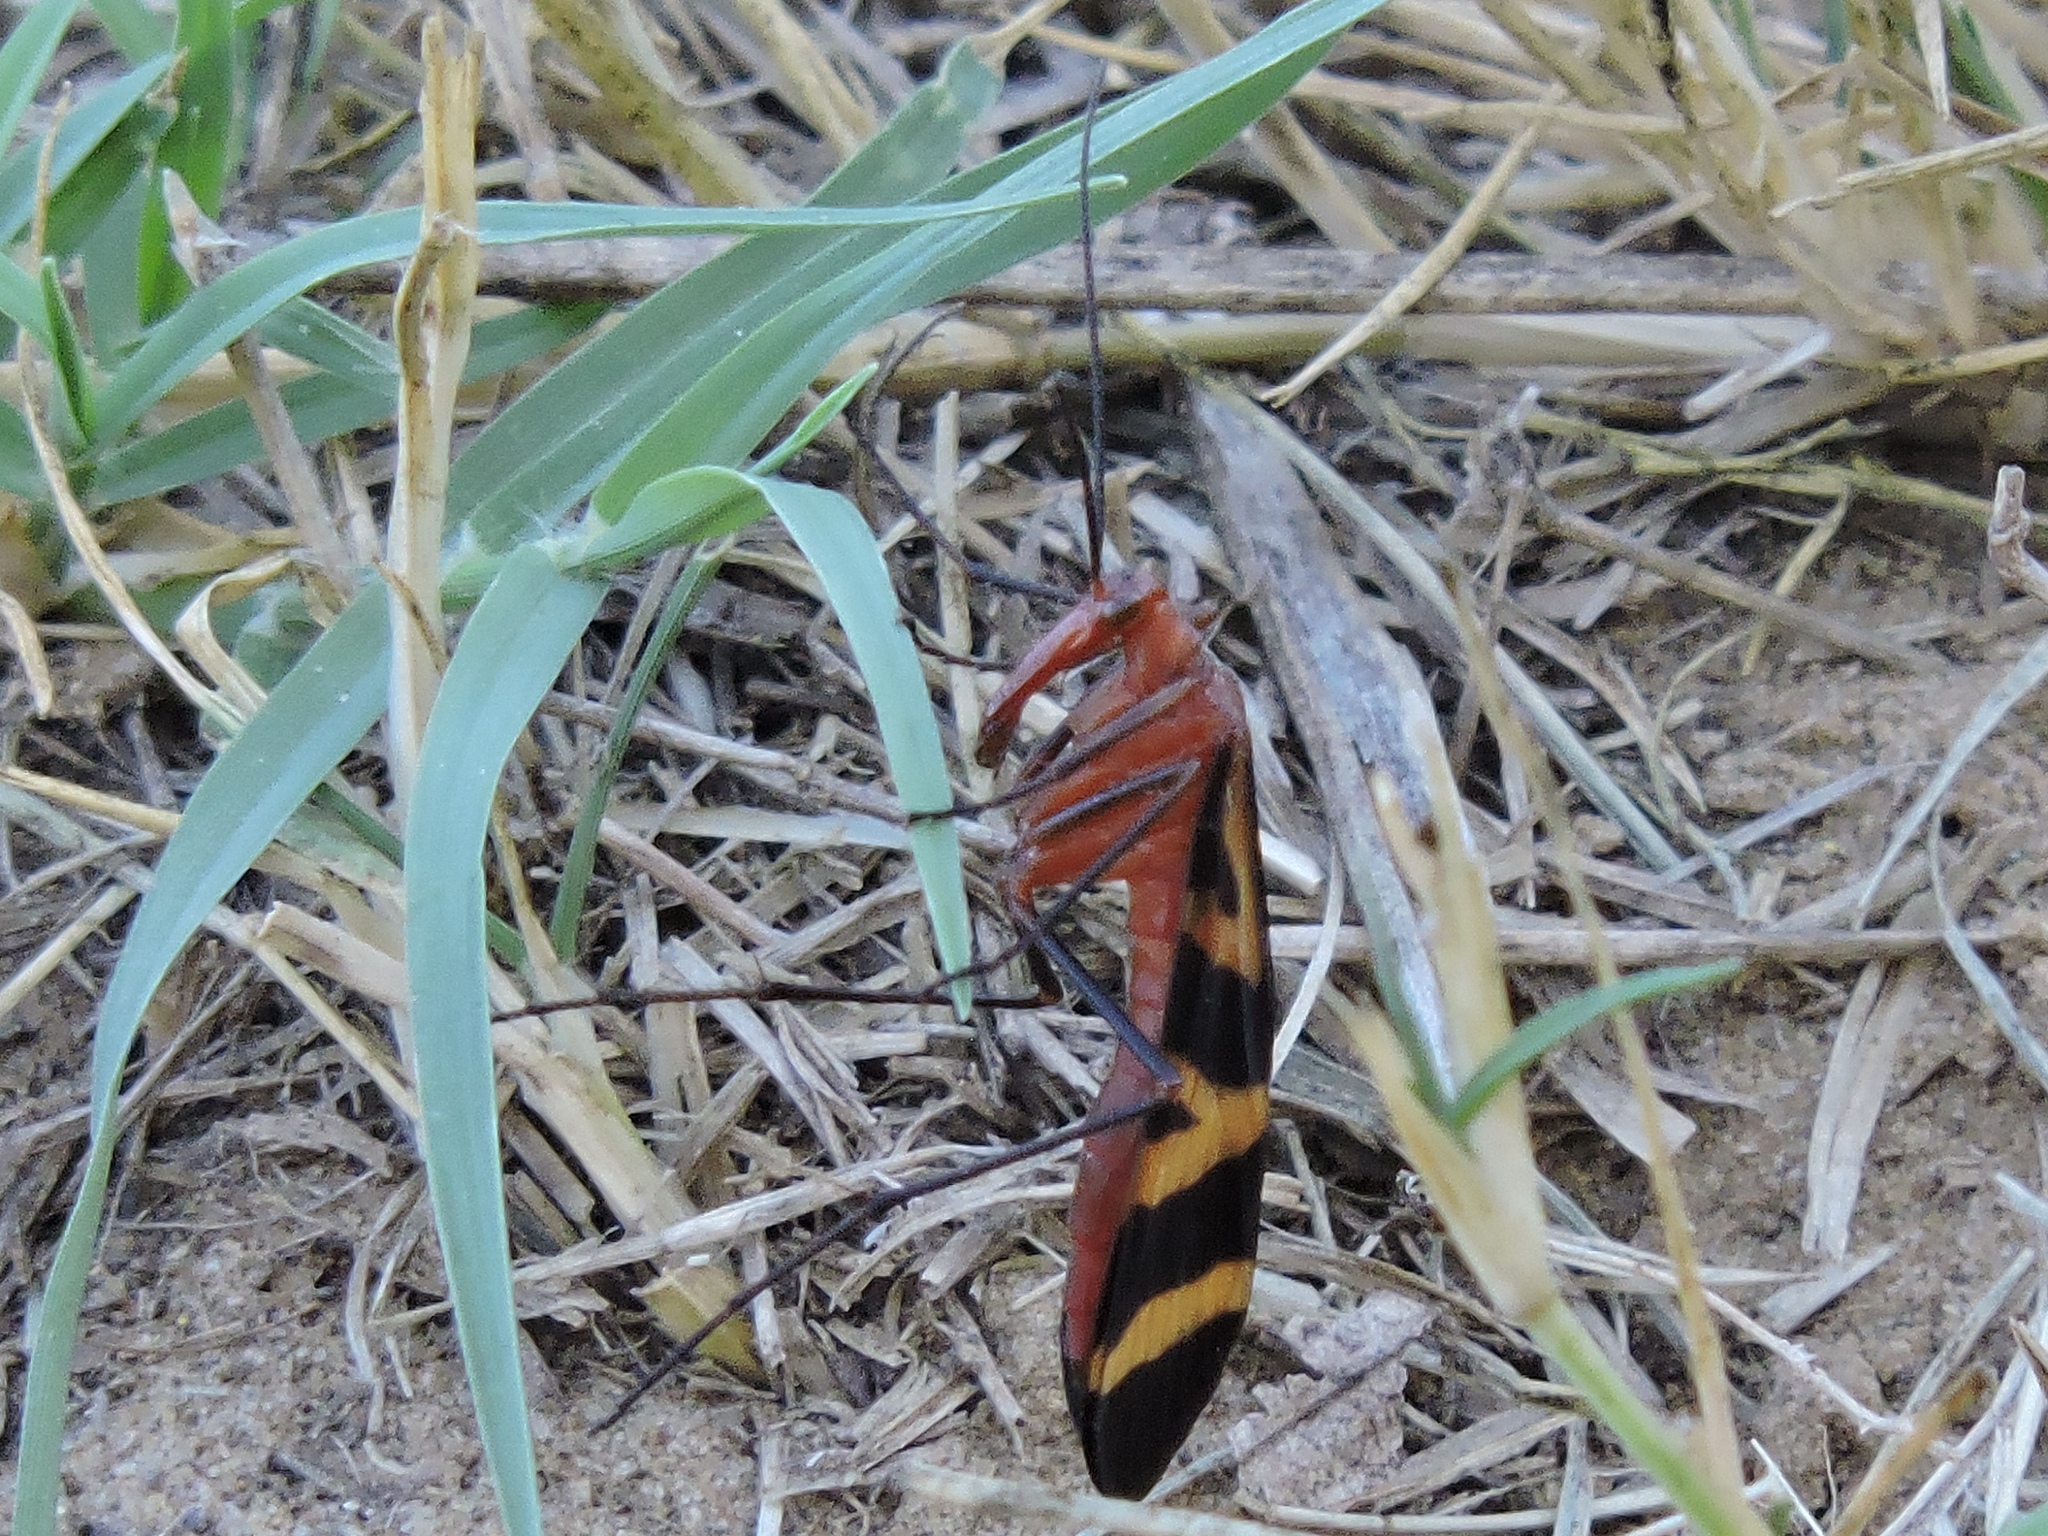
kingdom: Animalia
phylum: Arthropoda
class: Insecta
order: Mecoptera
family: Panorpidae
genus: Panorpa
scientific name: Panorpa nuptialis
